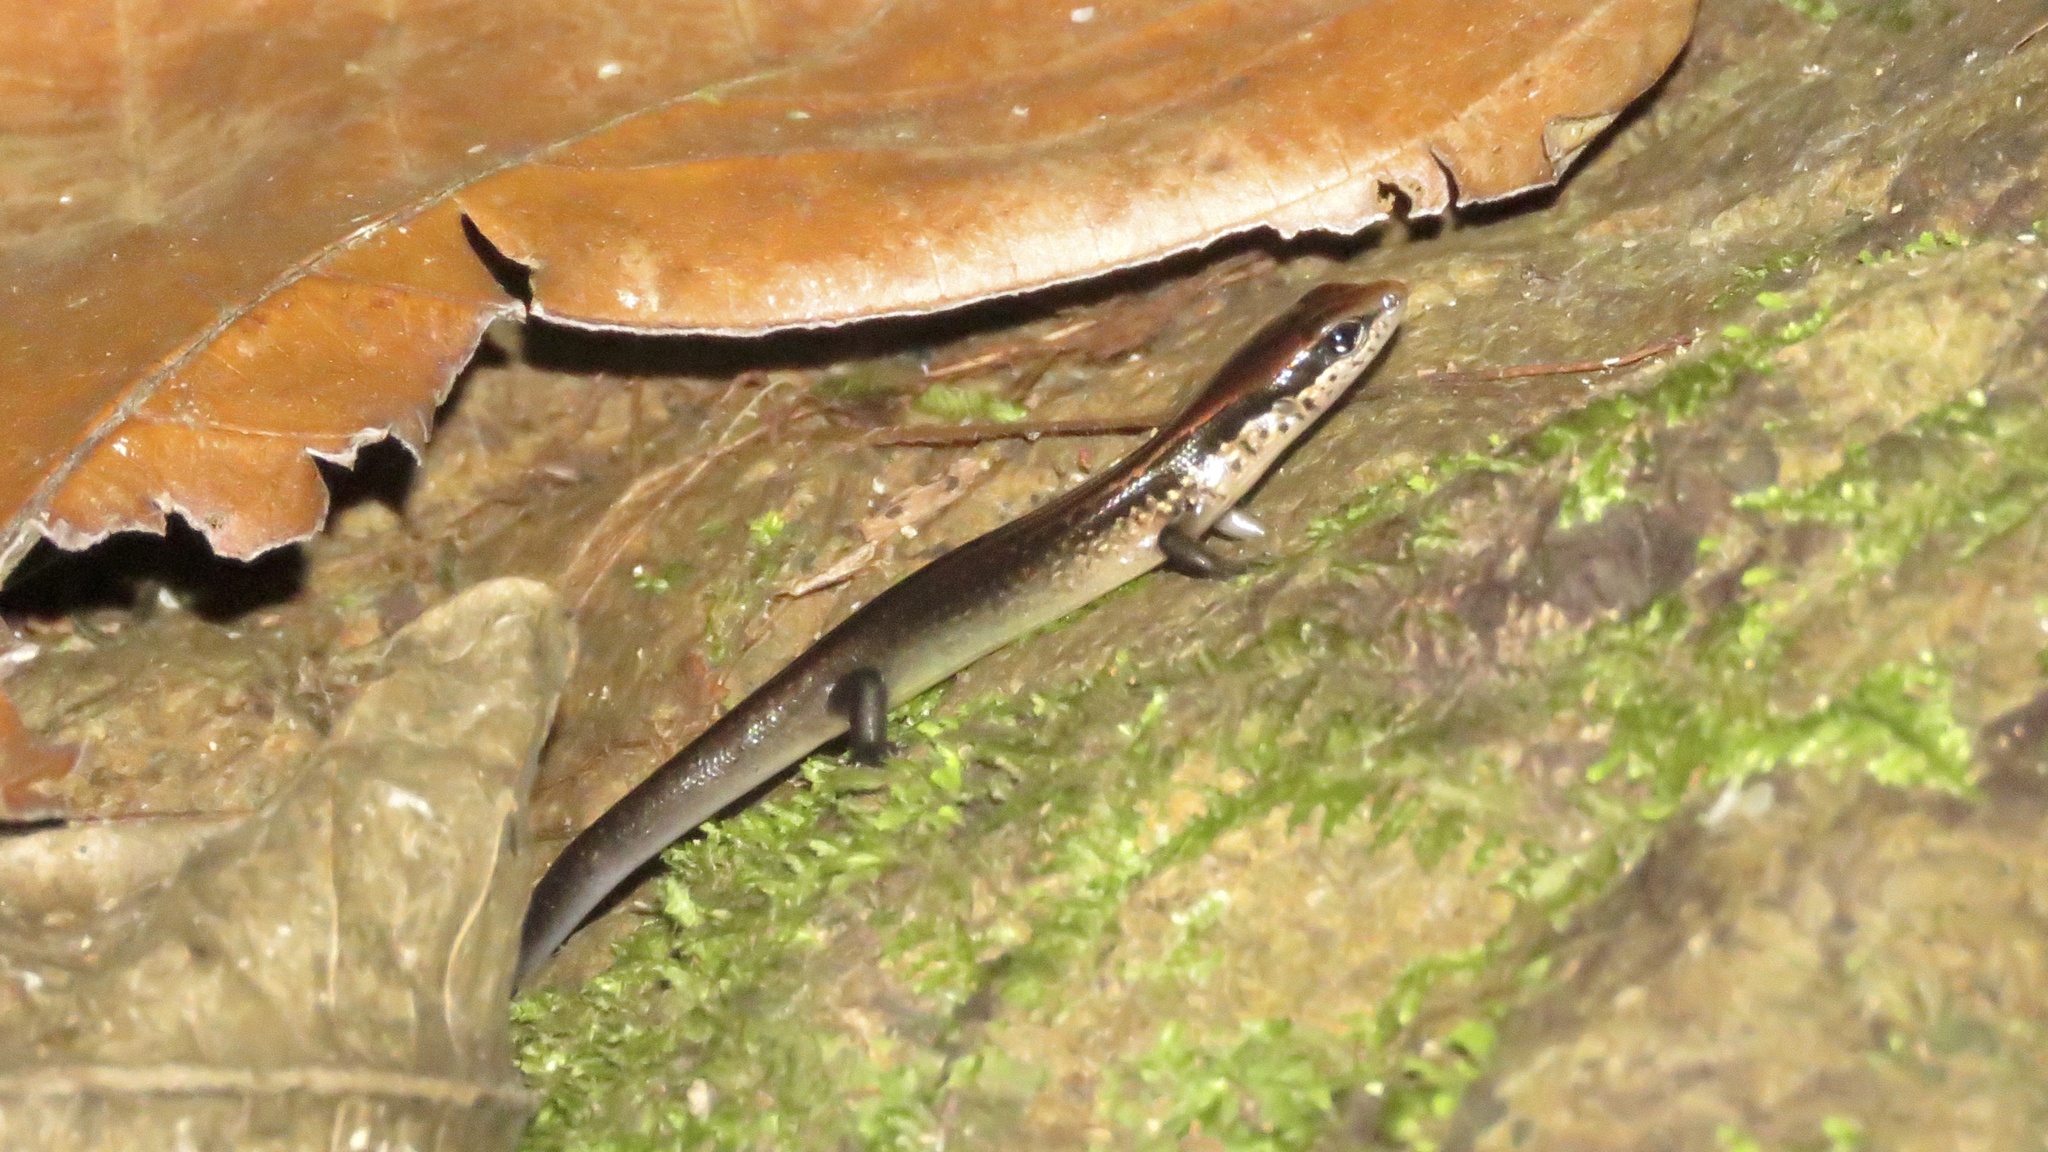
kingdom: Animalia
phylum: Chordata
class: Squamata
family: Scincidae
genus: Scincella
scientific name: Scincella cherriei
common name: Brown forest skink
